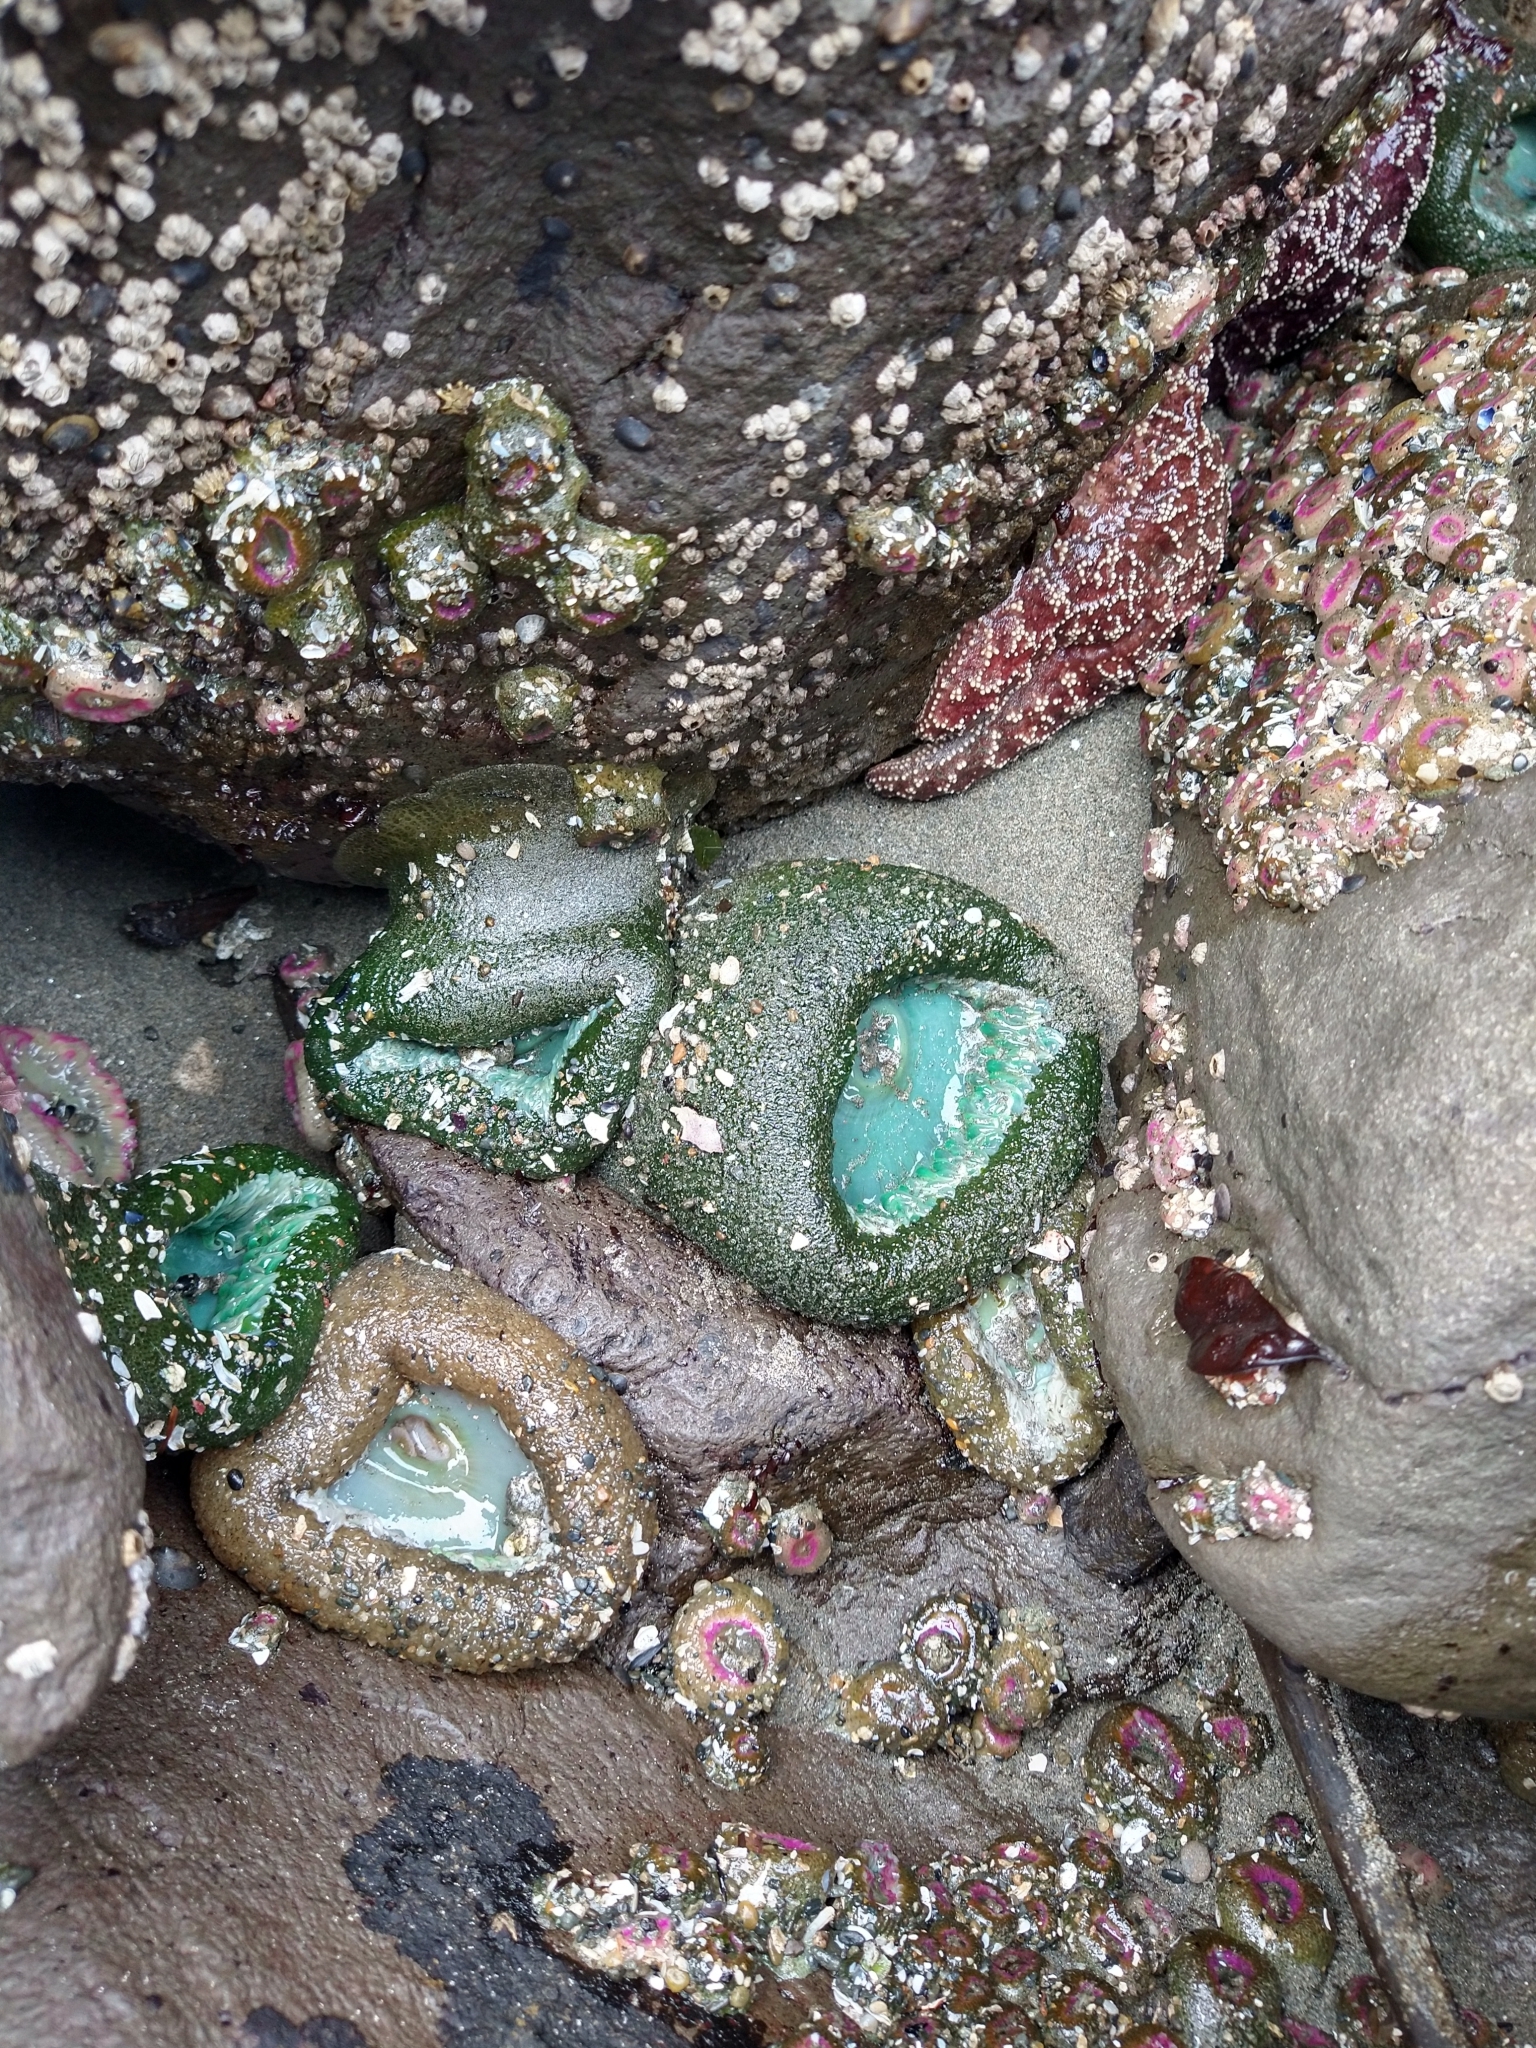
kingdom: Animalia
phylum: Cnidaria
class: Anthozoa
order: Actiniaria
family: Actiniidae
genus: Anthopleura
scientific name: Anthopleura xanthogrammica
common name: Giant green anemone
